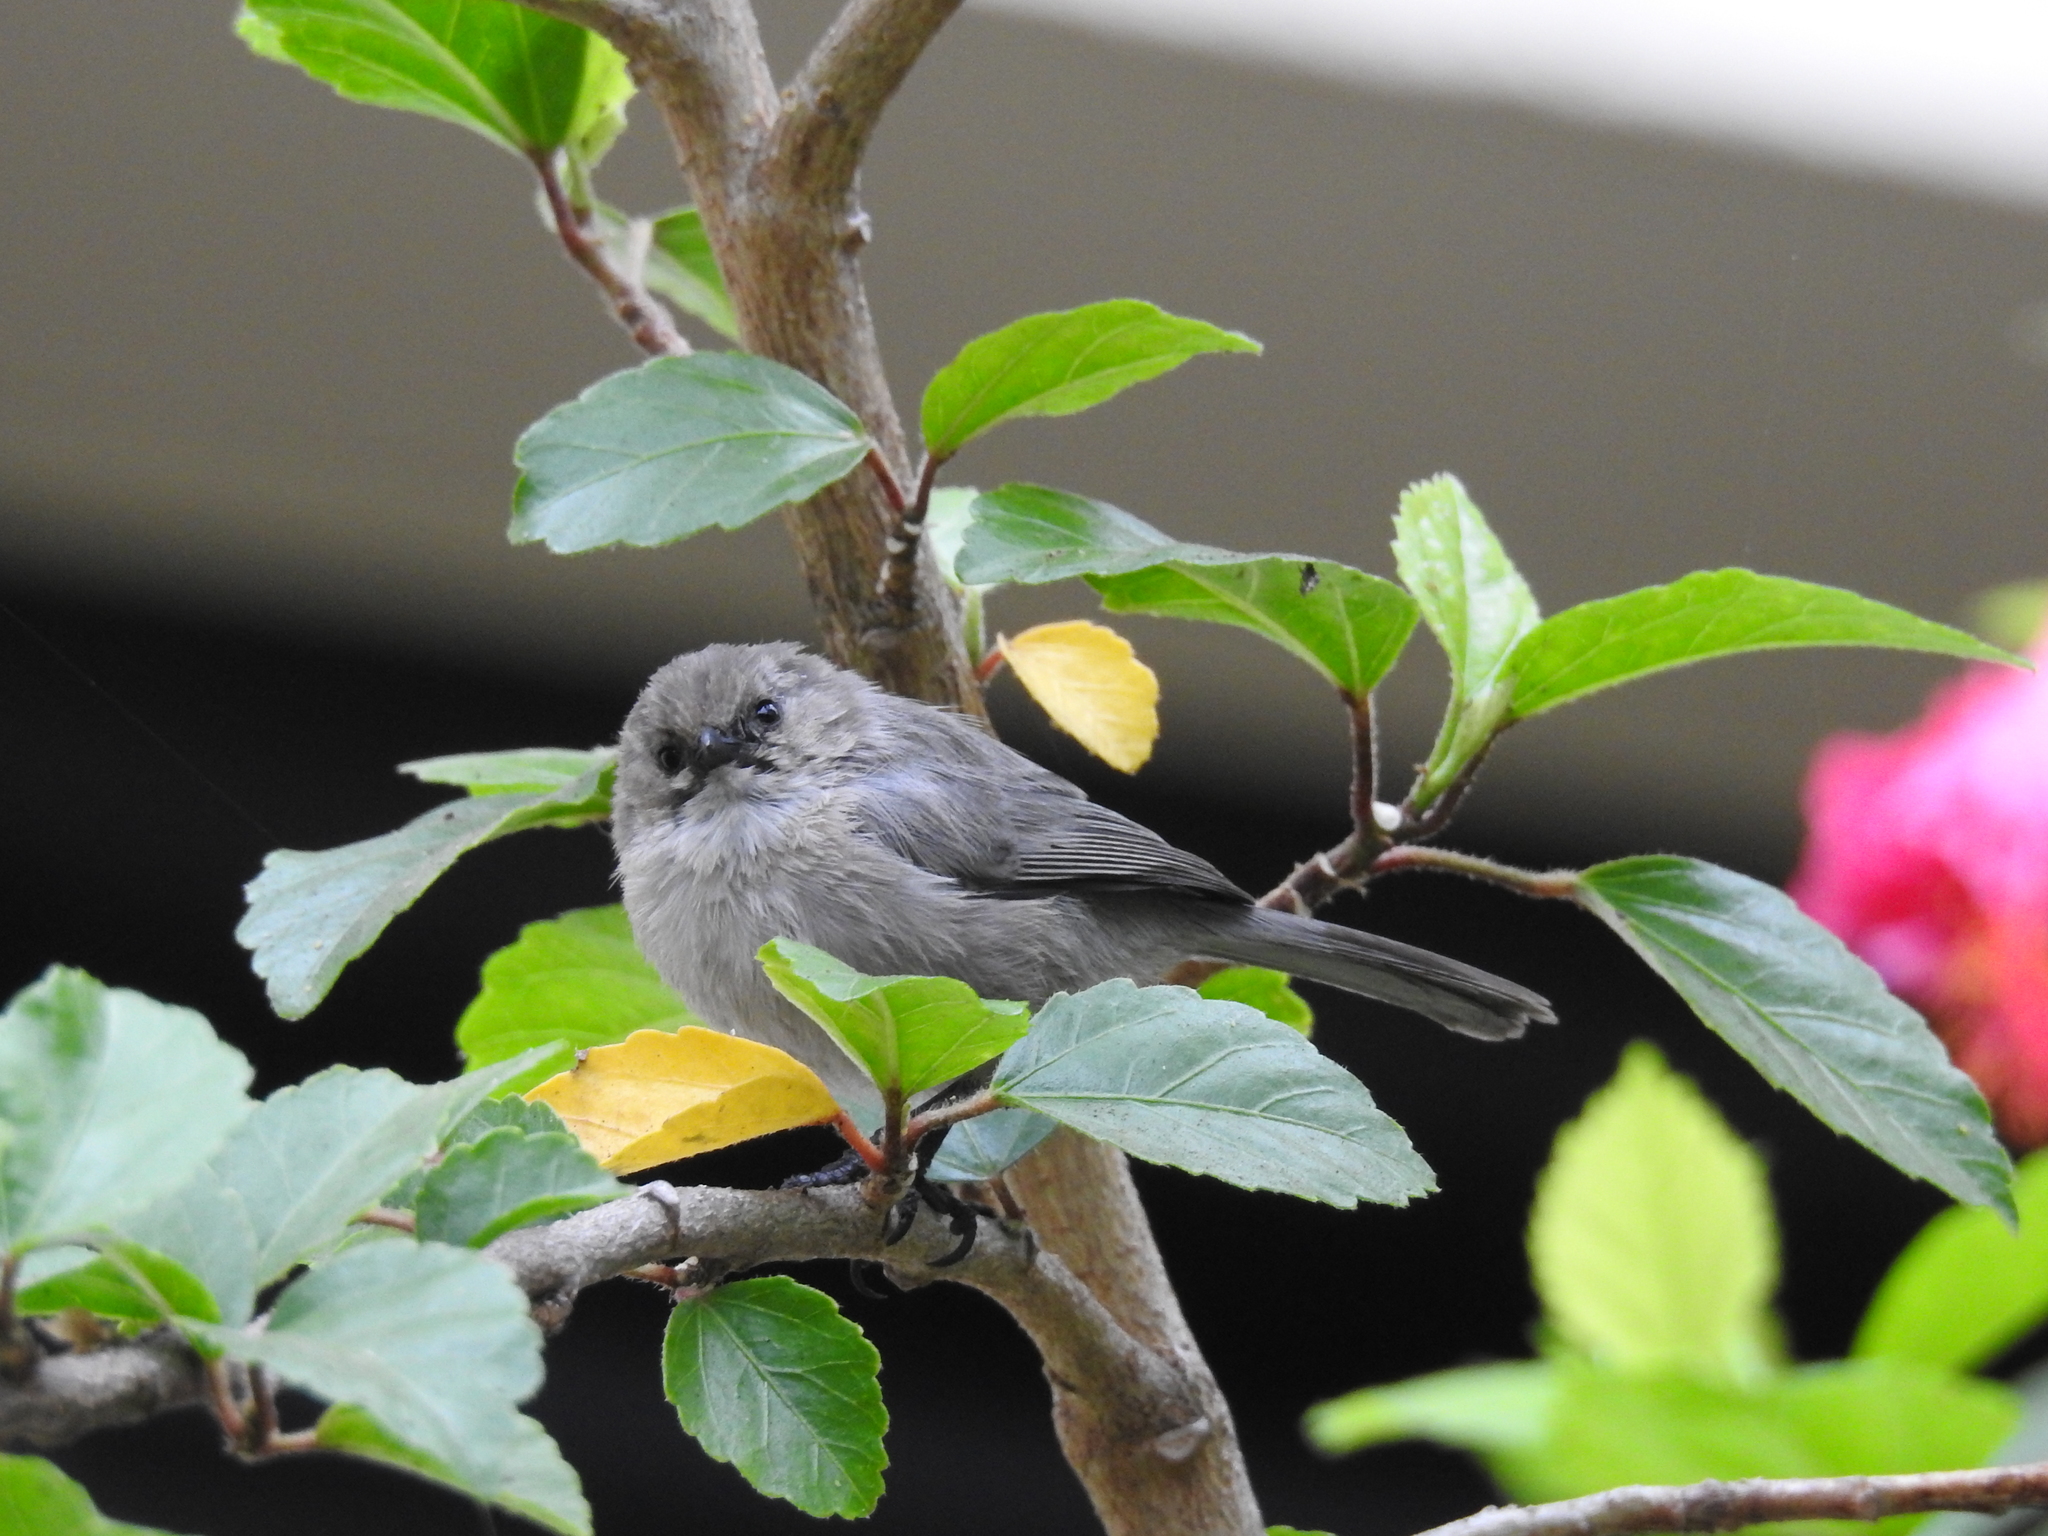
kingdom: Animalia
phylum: Chordata
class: Aves
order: Passeriformes
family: Aegithalidae
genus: Psaltriparus
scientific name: Psaltriparus minimus
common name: American bushtit
